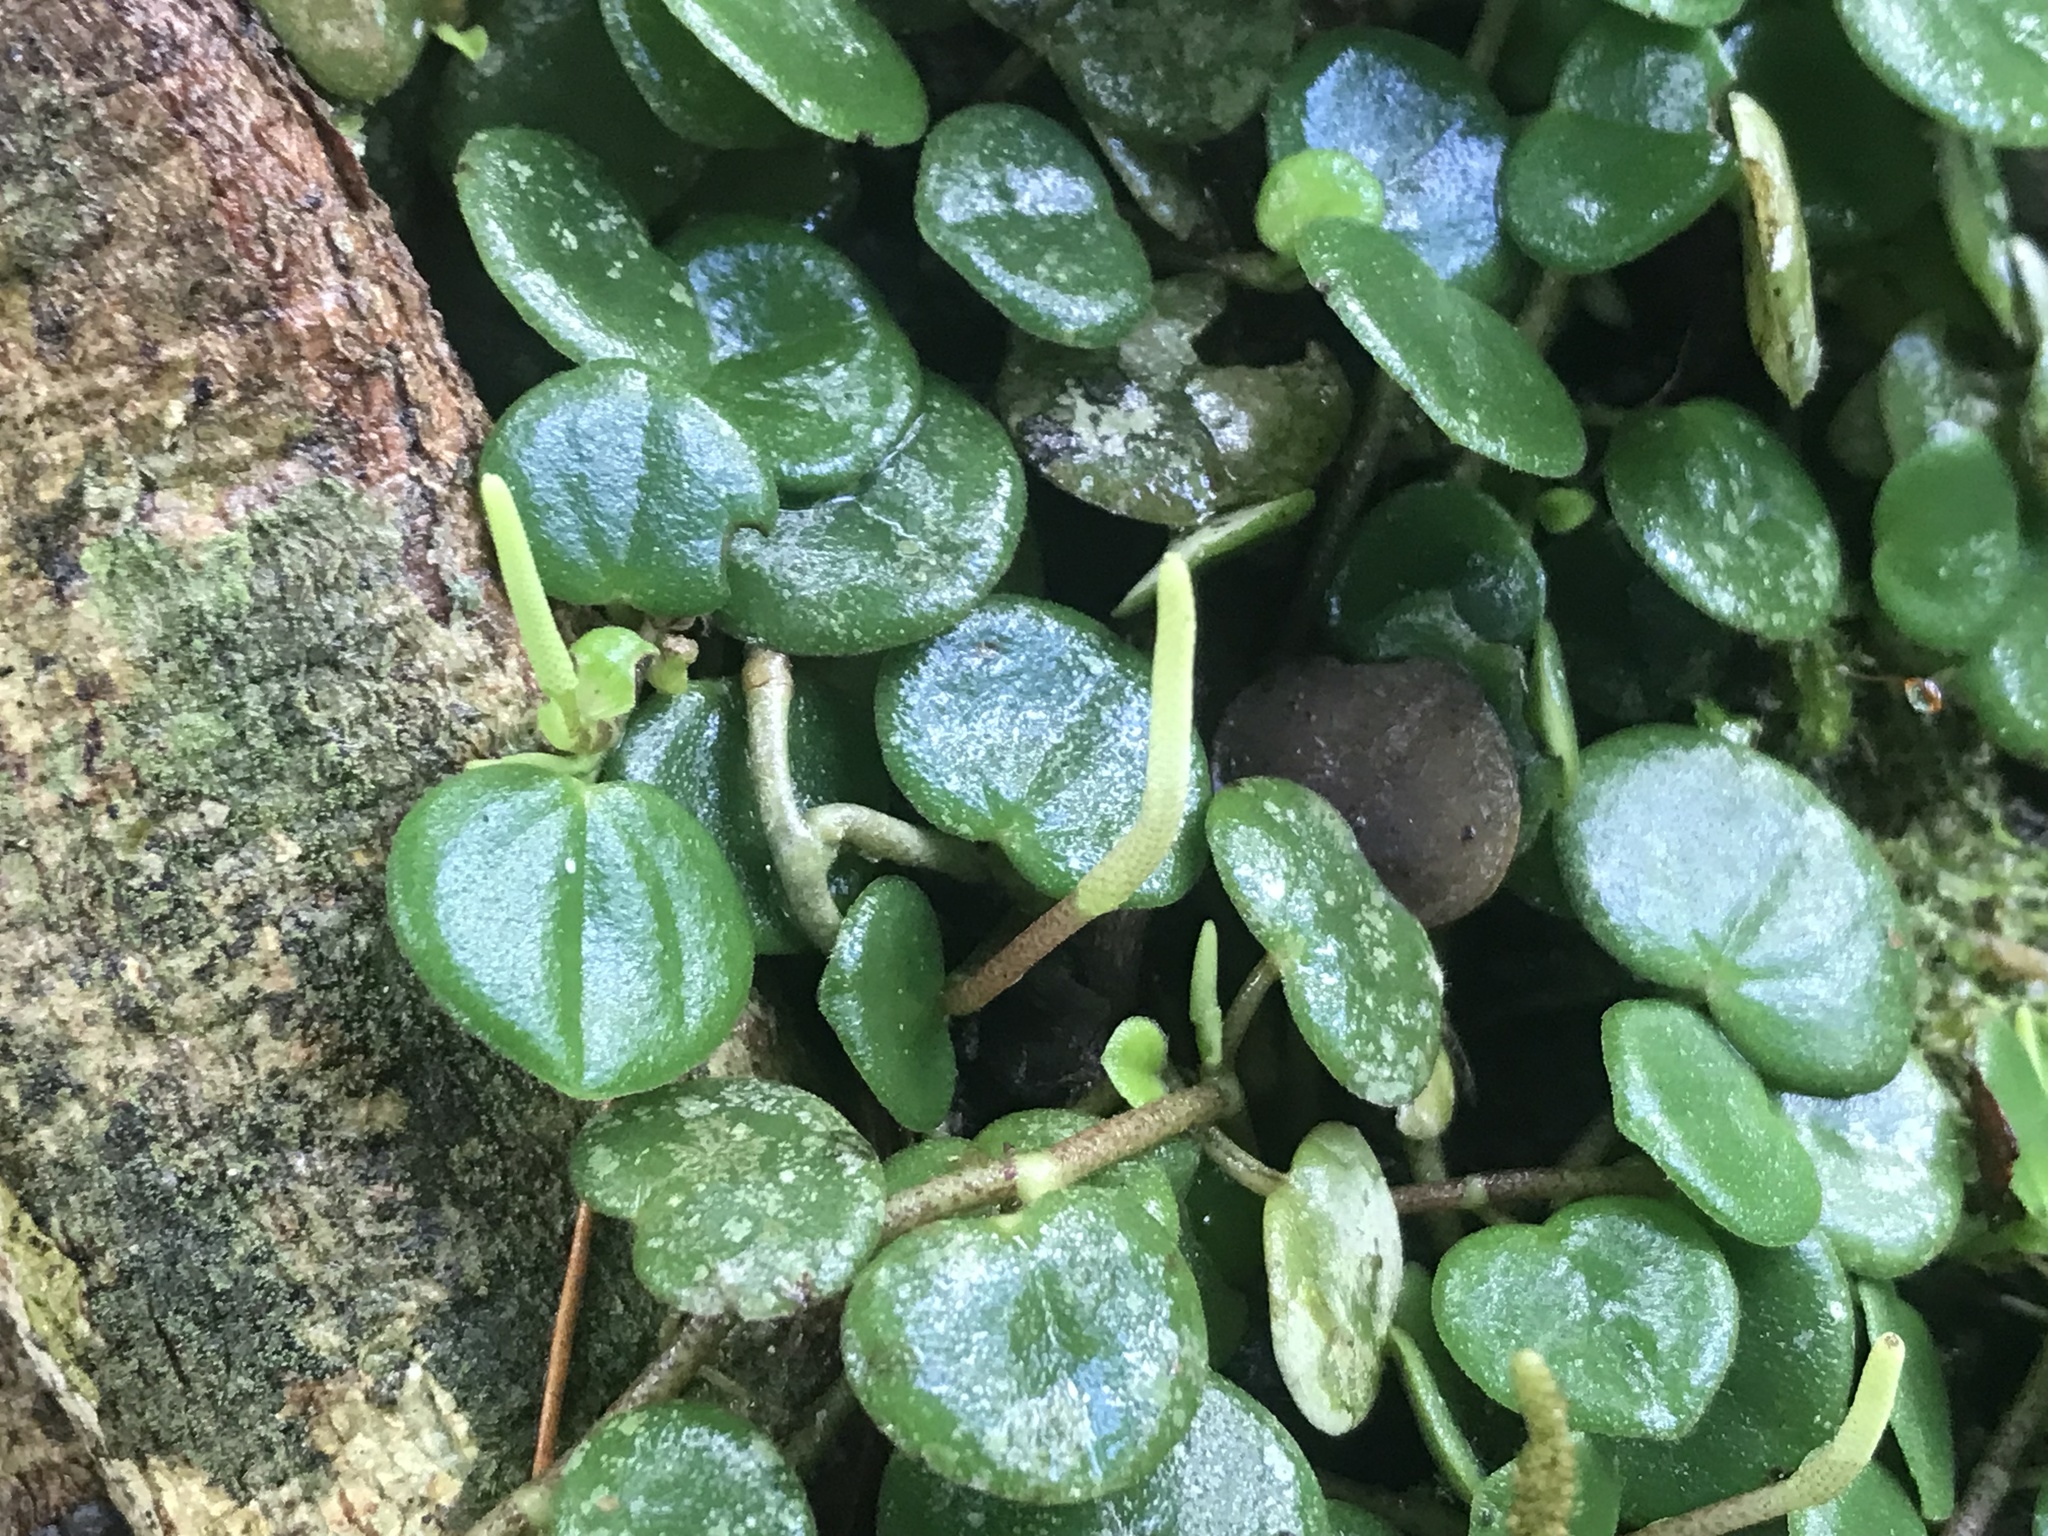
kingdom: Plantae
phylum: Tracheophyta
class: Magnoliopsida
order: Piperales
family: Piperaceae
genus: Peperomia
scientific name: Peperomia serpens
